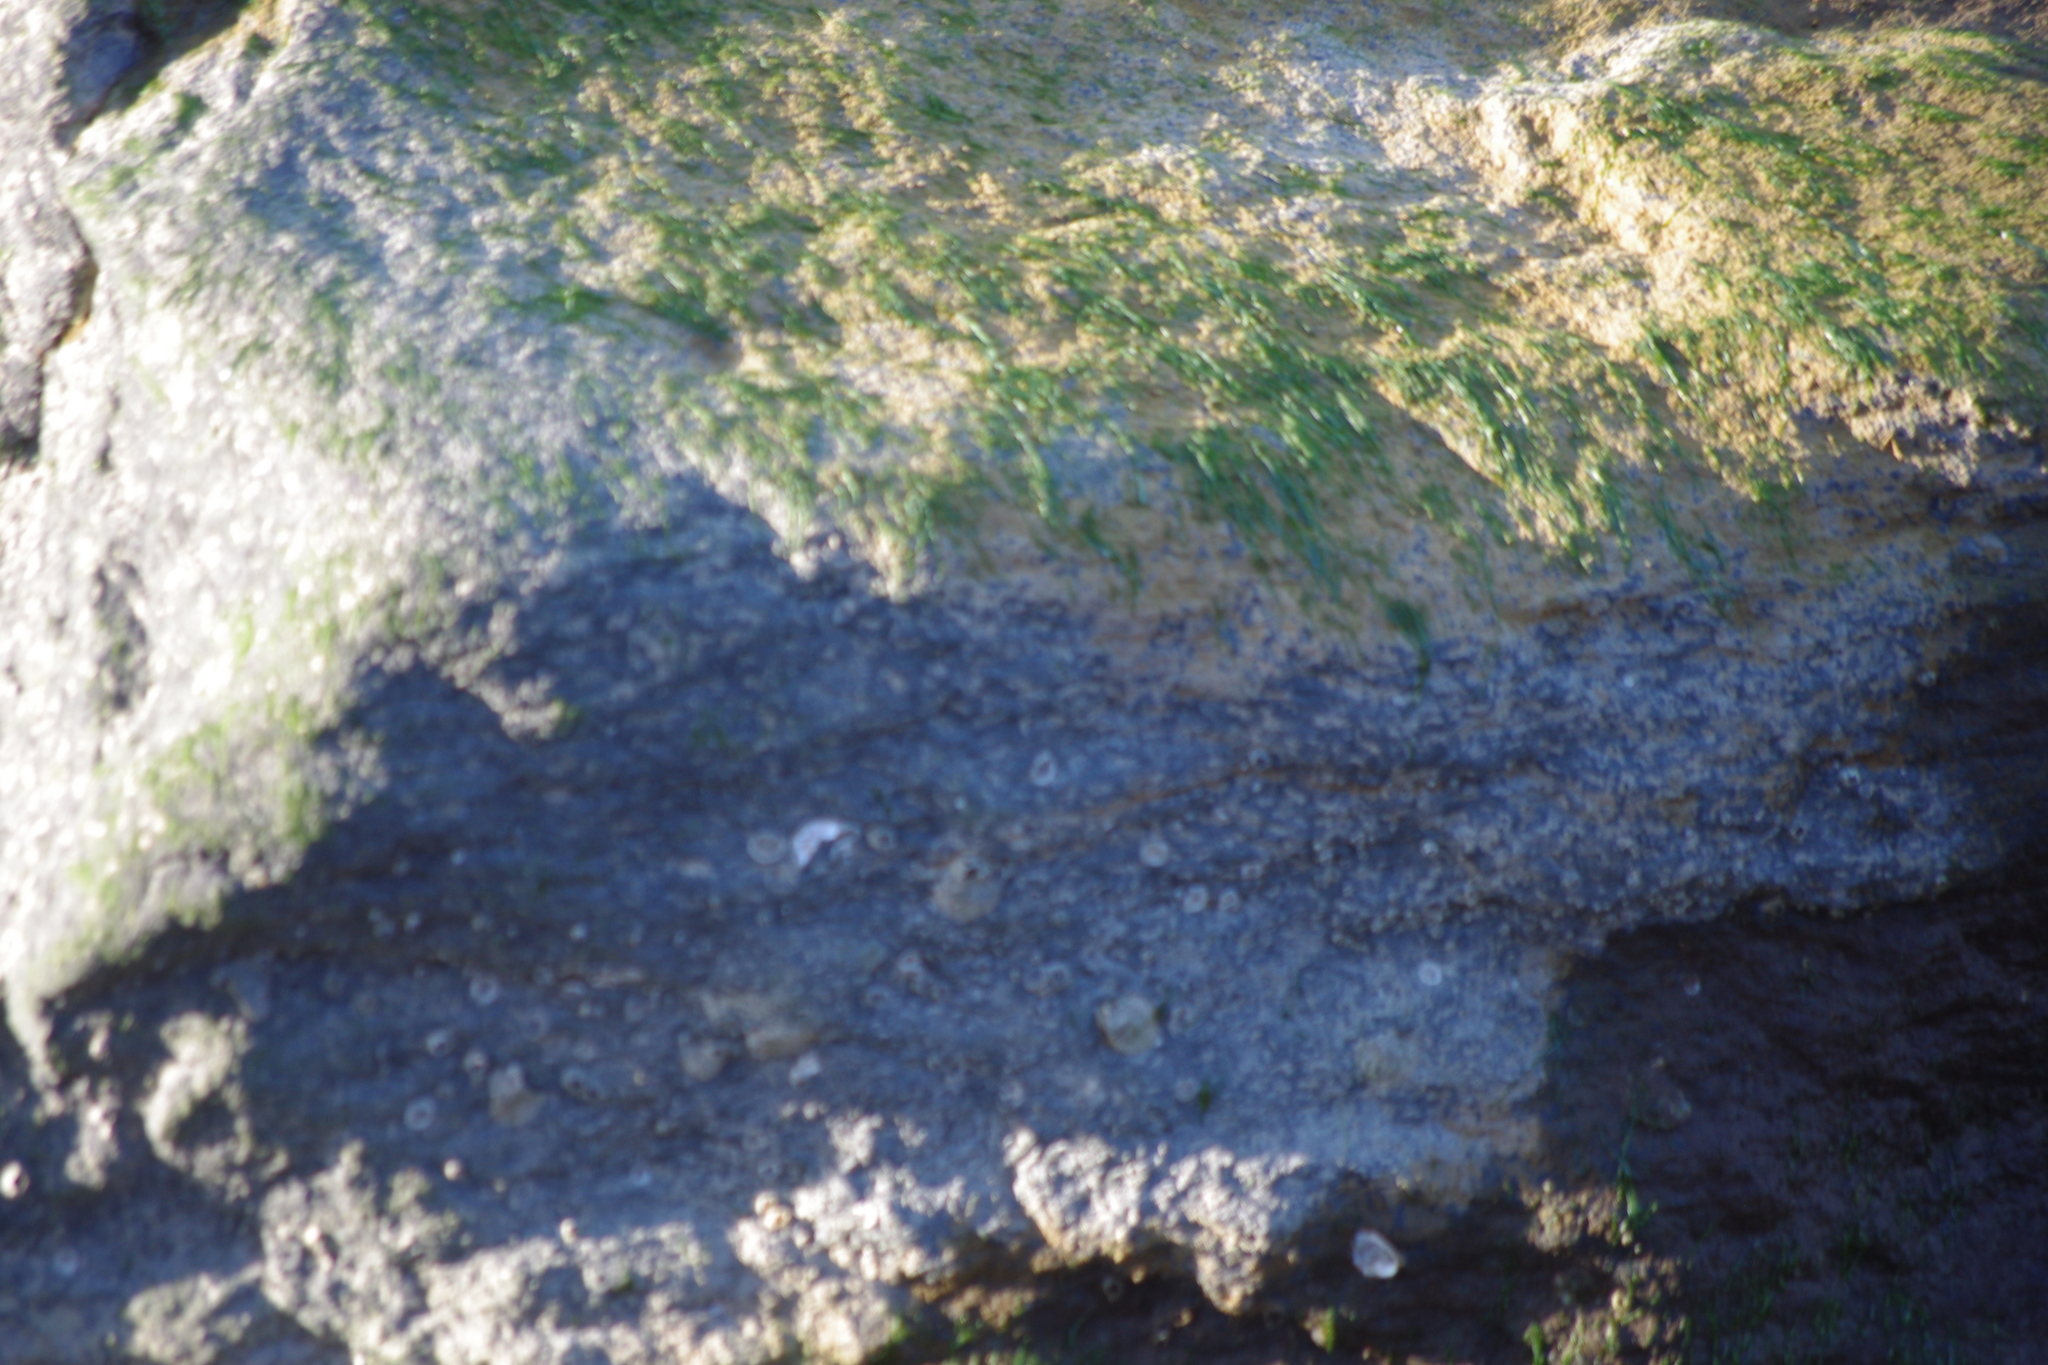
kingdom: Animalia
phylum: Mollusca
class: Bivalvia
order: Mytilida
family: Mytilidae
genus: Geukensia
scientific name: Geukensia demissa
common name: Ribbed mussel
